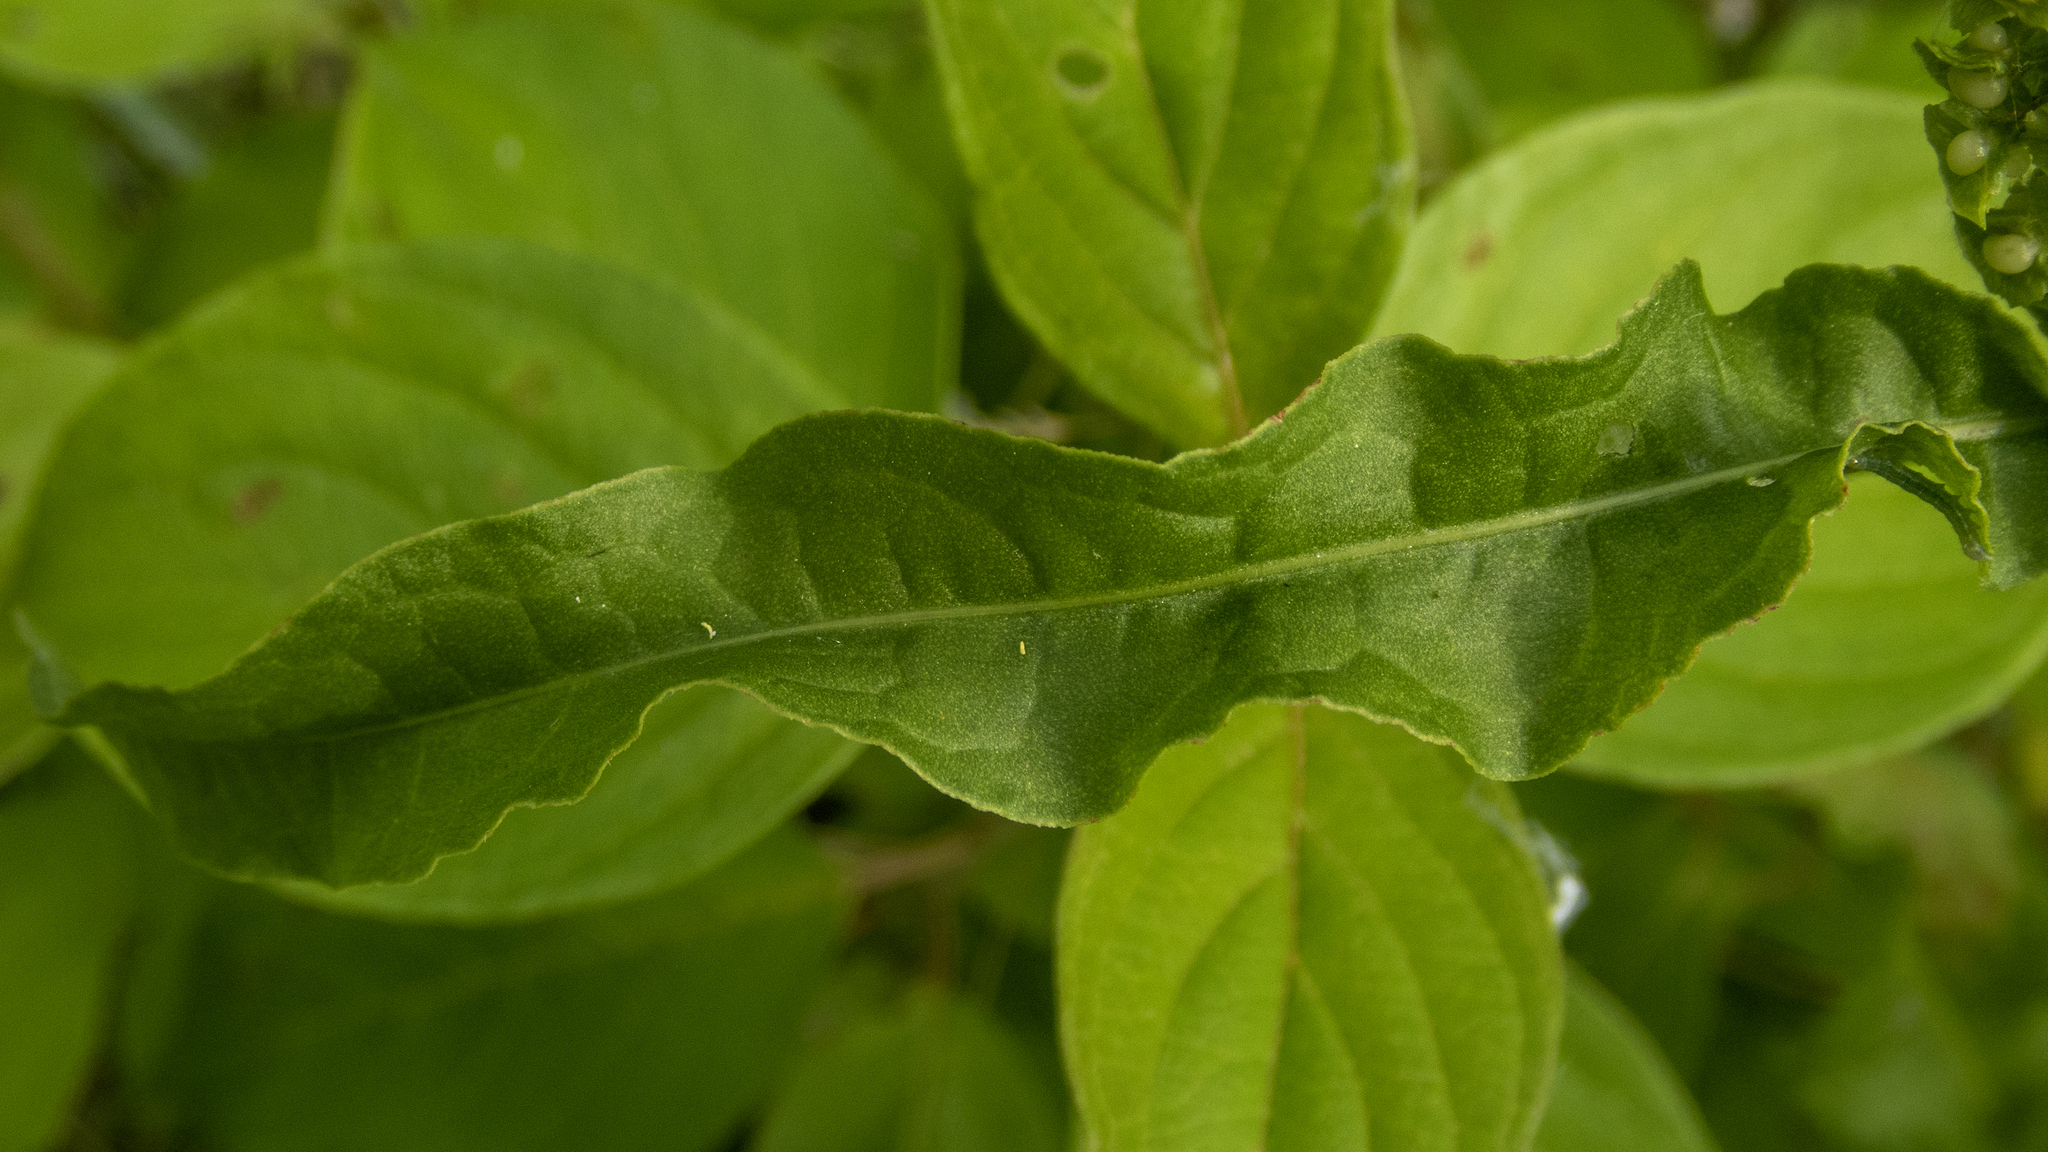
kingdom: Plantae
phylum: Tracheophyta
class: Magnoliopsida
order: Caryophyllales
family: Polygonaceae
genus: Rumex
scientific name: Rumex crispus
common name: Curled dock
